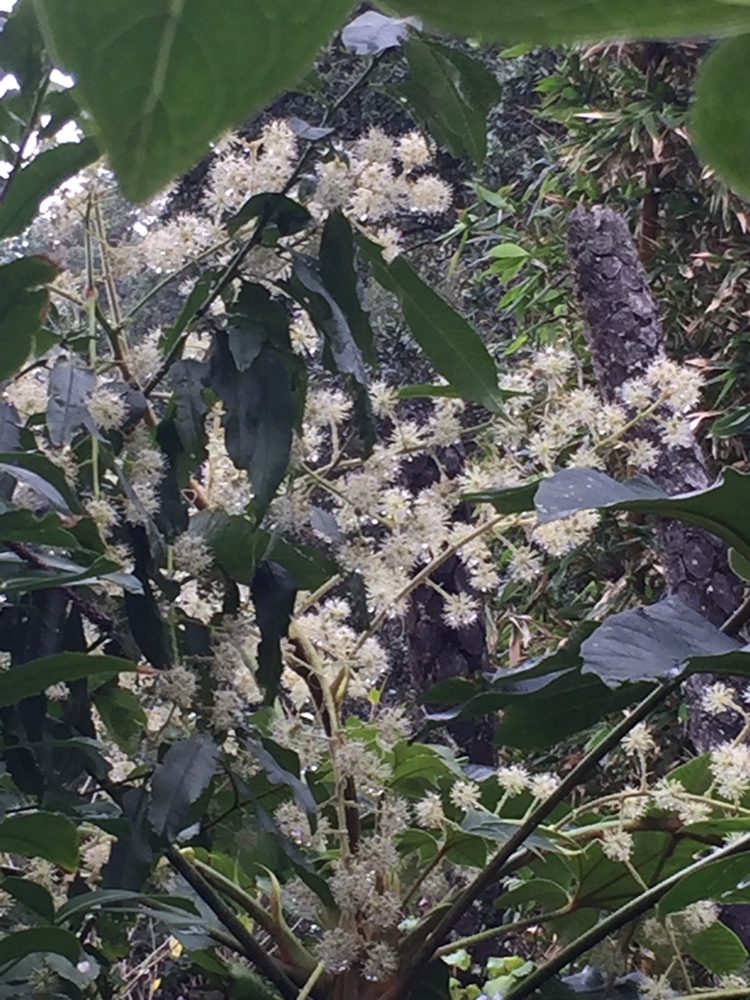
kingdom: Plantae
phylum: Tracheophyta
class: Magnoliopsida
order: Apiales
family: Araliaceae
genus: Tetrapanax
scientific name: Tetrapanax papyrifer
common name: Rice-paper plant
